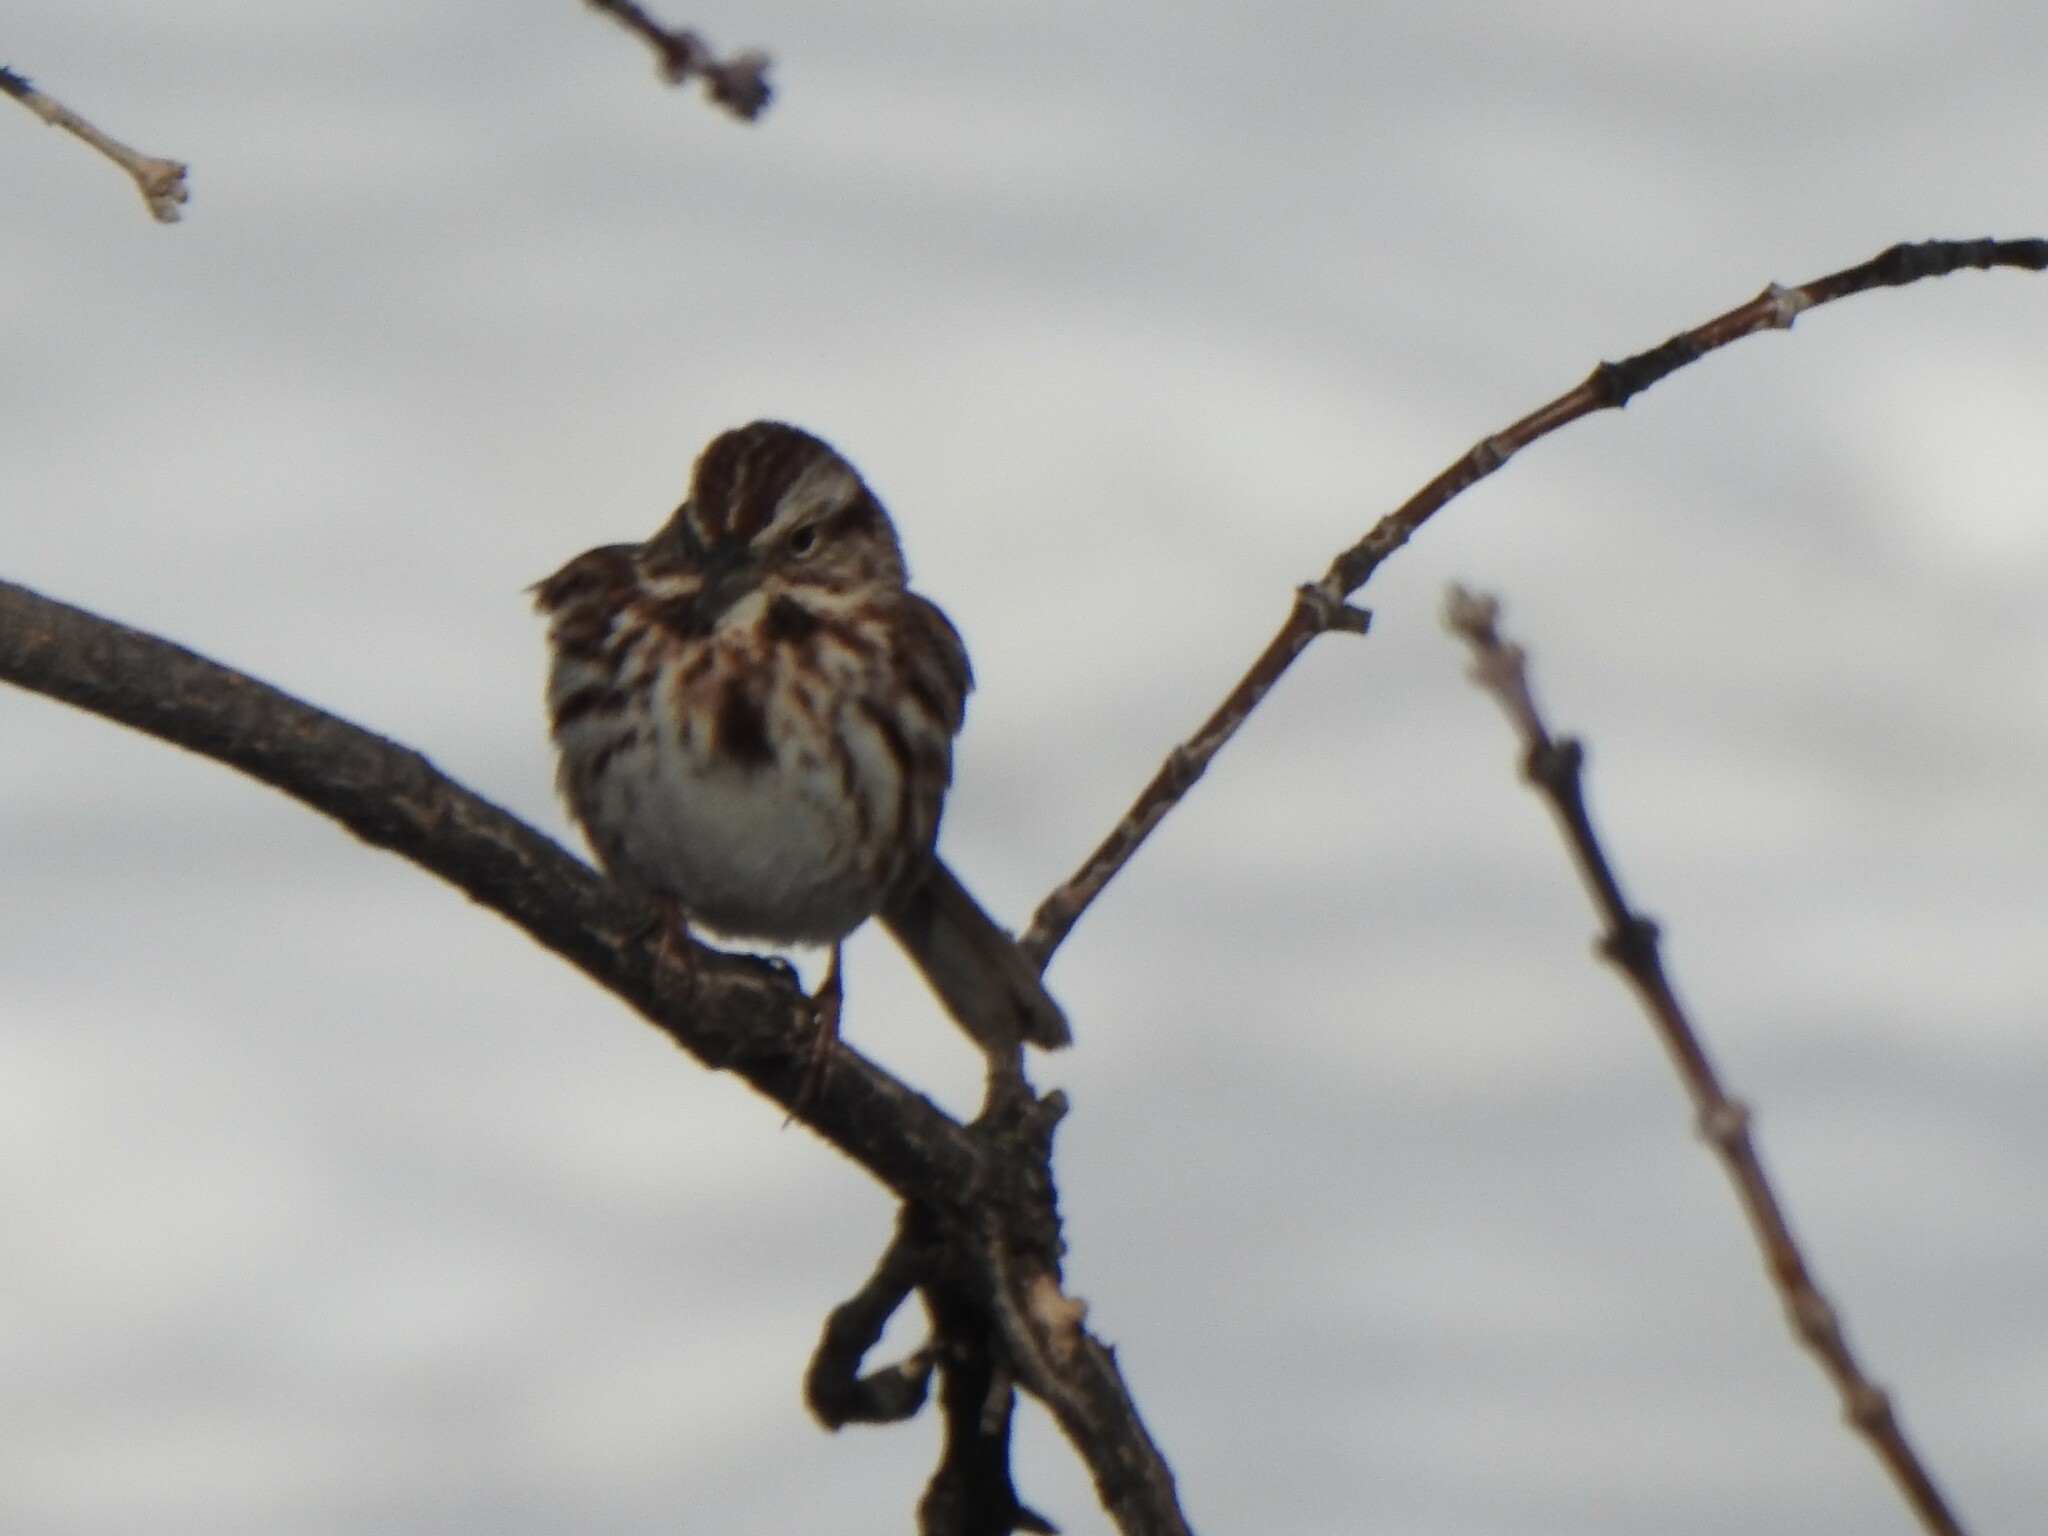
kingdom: Animalia
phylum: Chordata
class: Aves
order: Passeriformes
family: Passerellidae
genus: Melospiza
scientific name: Melospiza melodia
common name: Song sparrow
